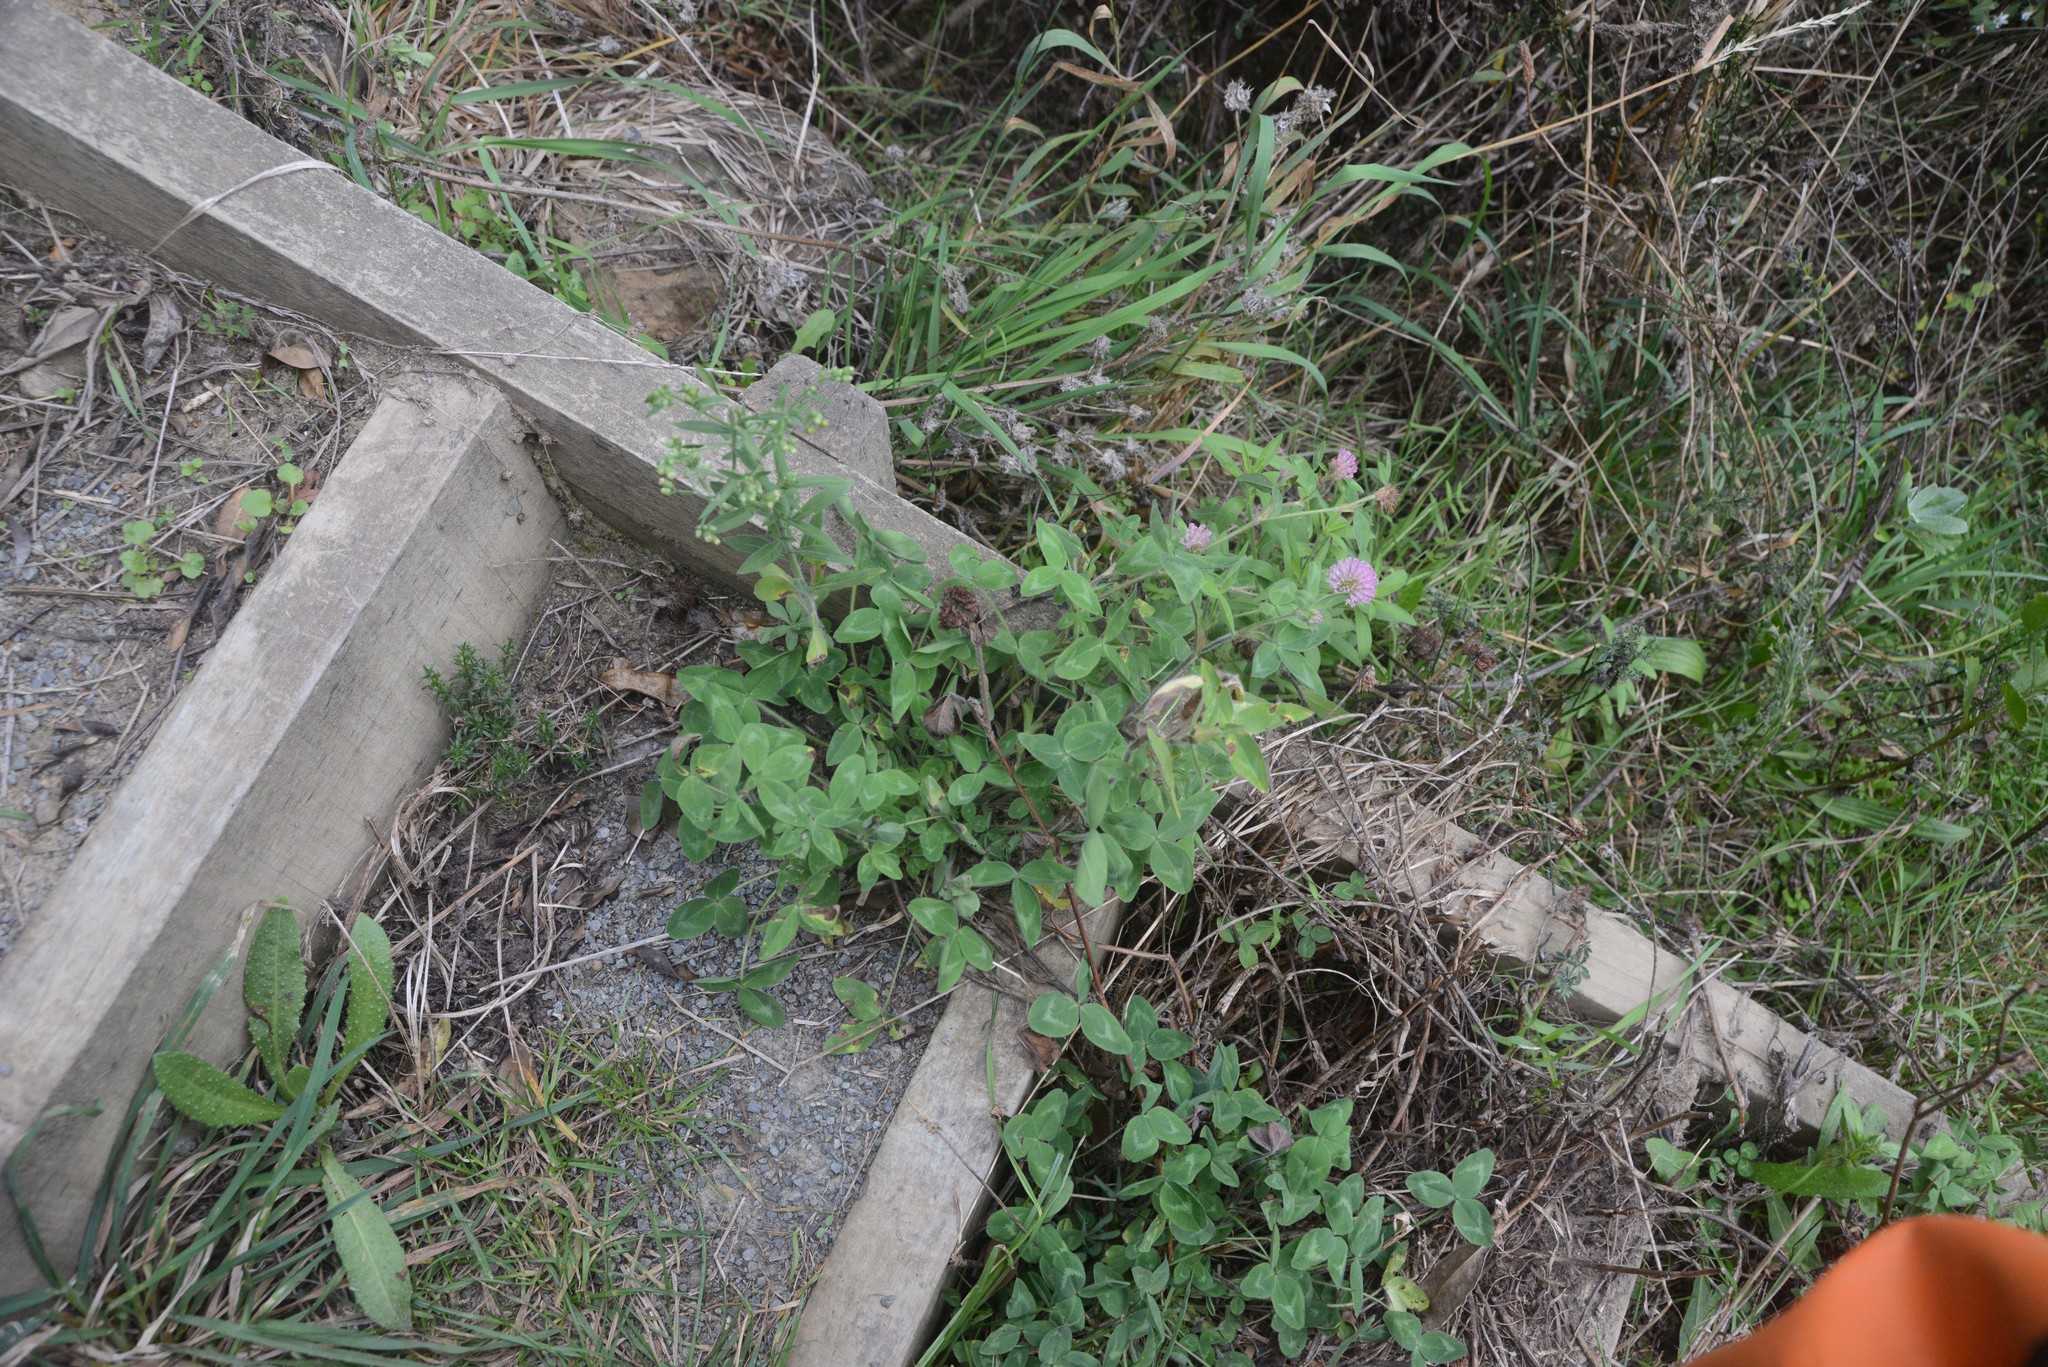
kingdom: Plantae
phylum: Tracheophyta
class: Magnoliopsida
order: Fabales
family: Fabaceae
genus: Trifolium
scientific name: Trifolium pratense
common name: Red clover
